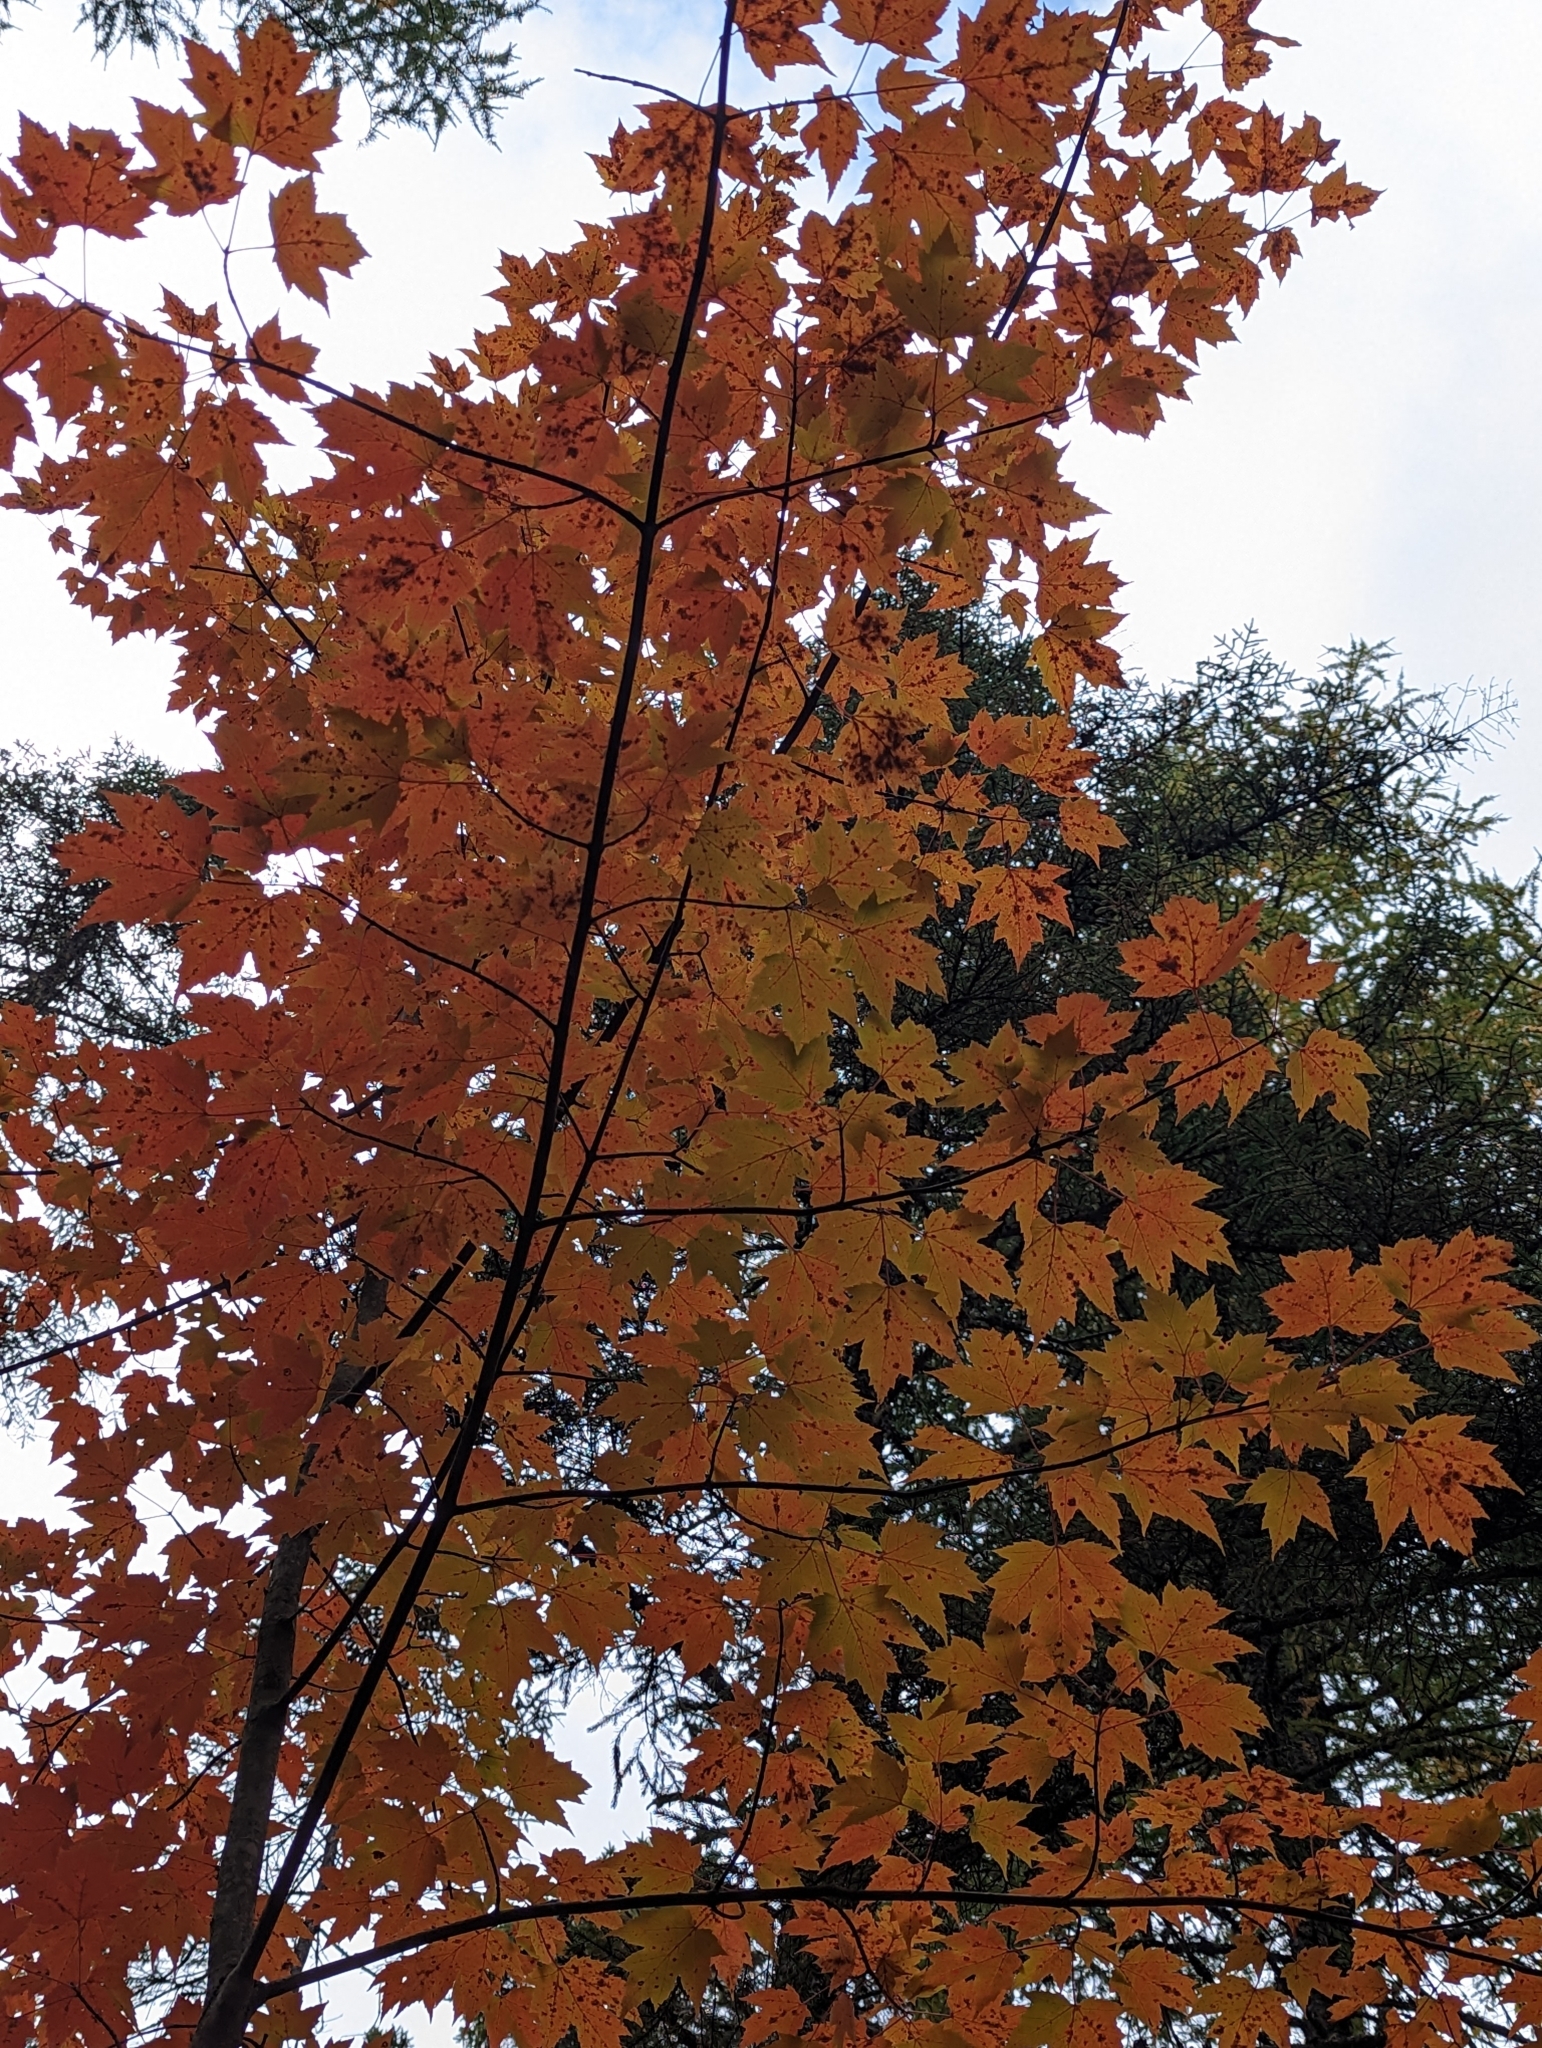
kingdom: Plantae
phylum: Tracheophyta
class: Magnoliopsida
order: Sapindales
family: Sapindaceae
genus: Acer
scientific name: Acer rubrum
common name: Red maple
